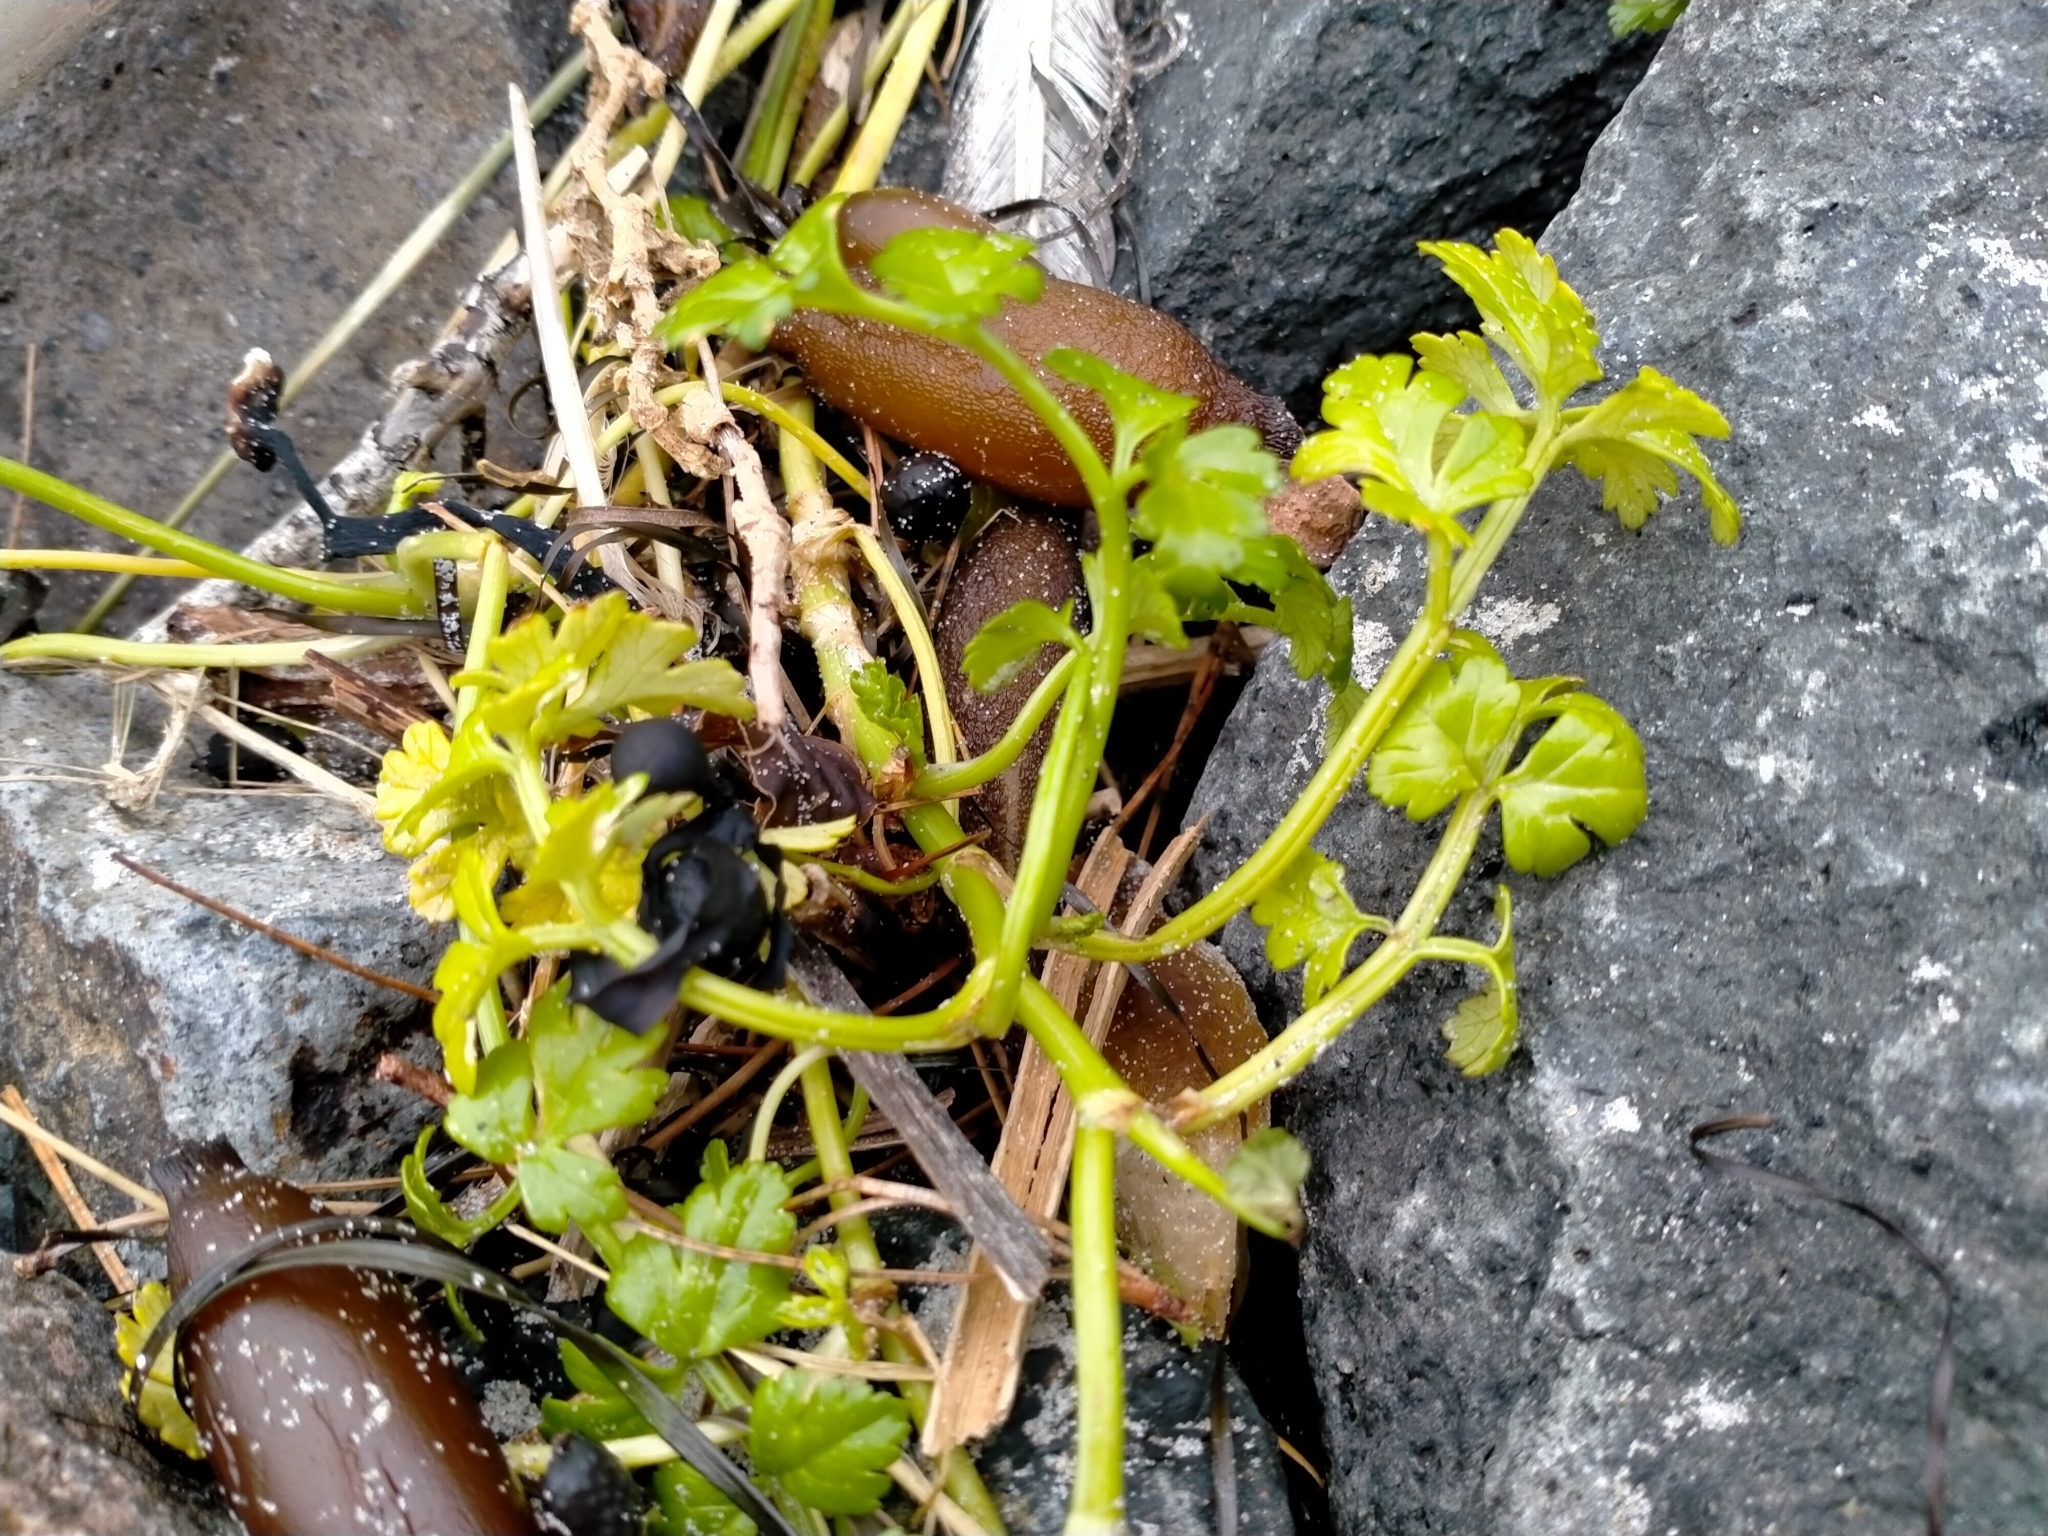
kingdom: Plantae
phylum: Tracheophyta
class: Magnoliopsida
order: Apiales
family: Apiaceae
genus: Apium
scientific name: Apium prostratum
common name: Prostrate marshwort
